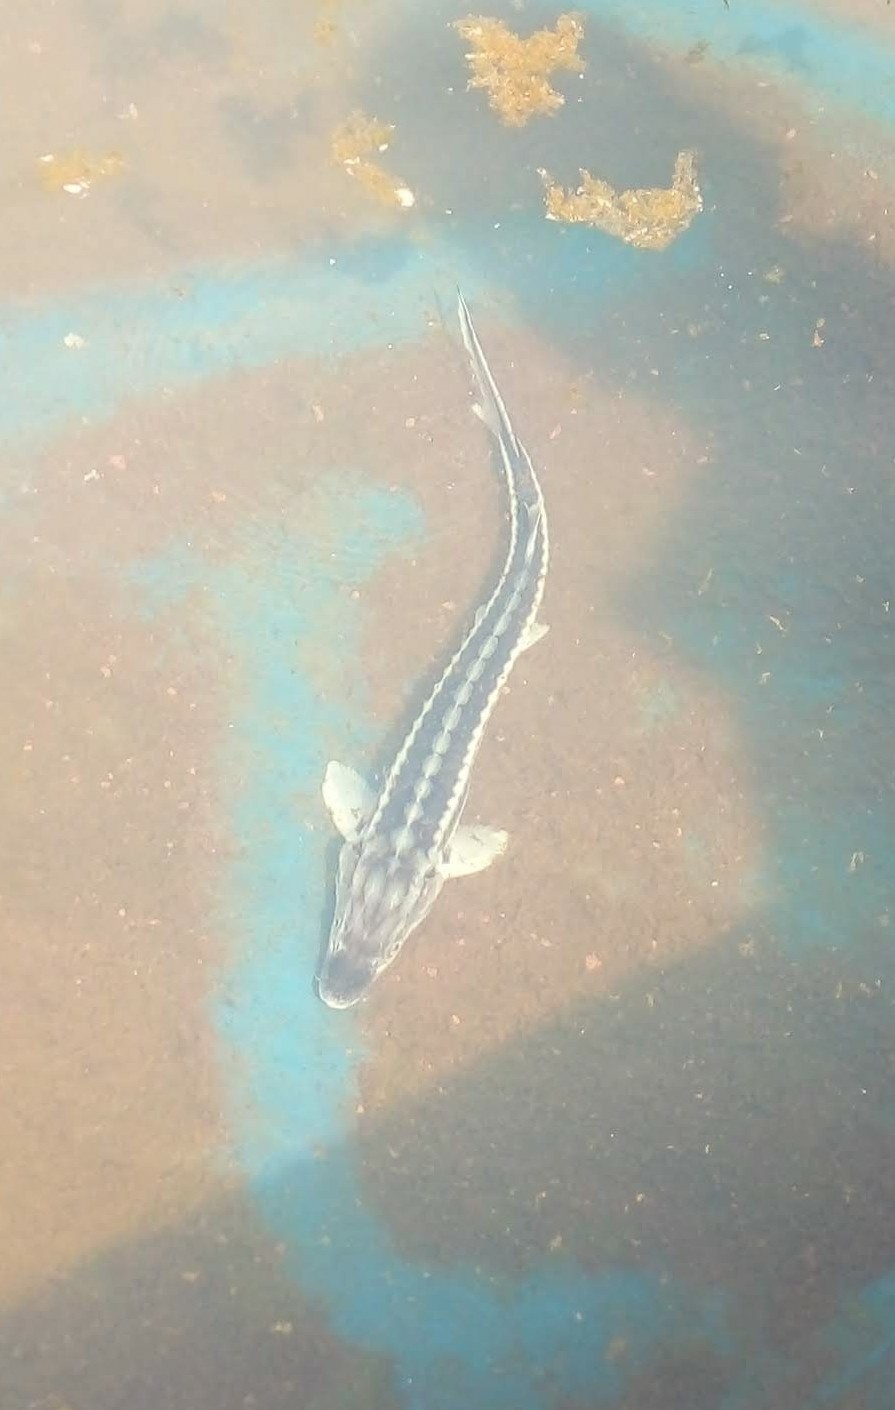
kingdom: Animalia
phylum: Chordata
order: Acipenseriformes
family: Acipenseridae
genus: Acipenser
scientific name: Acipenser persicus
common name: Persian sturgeon
